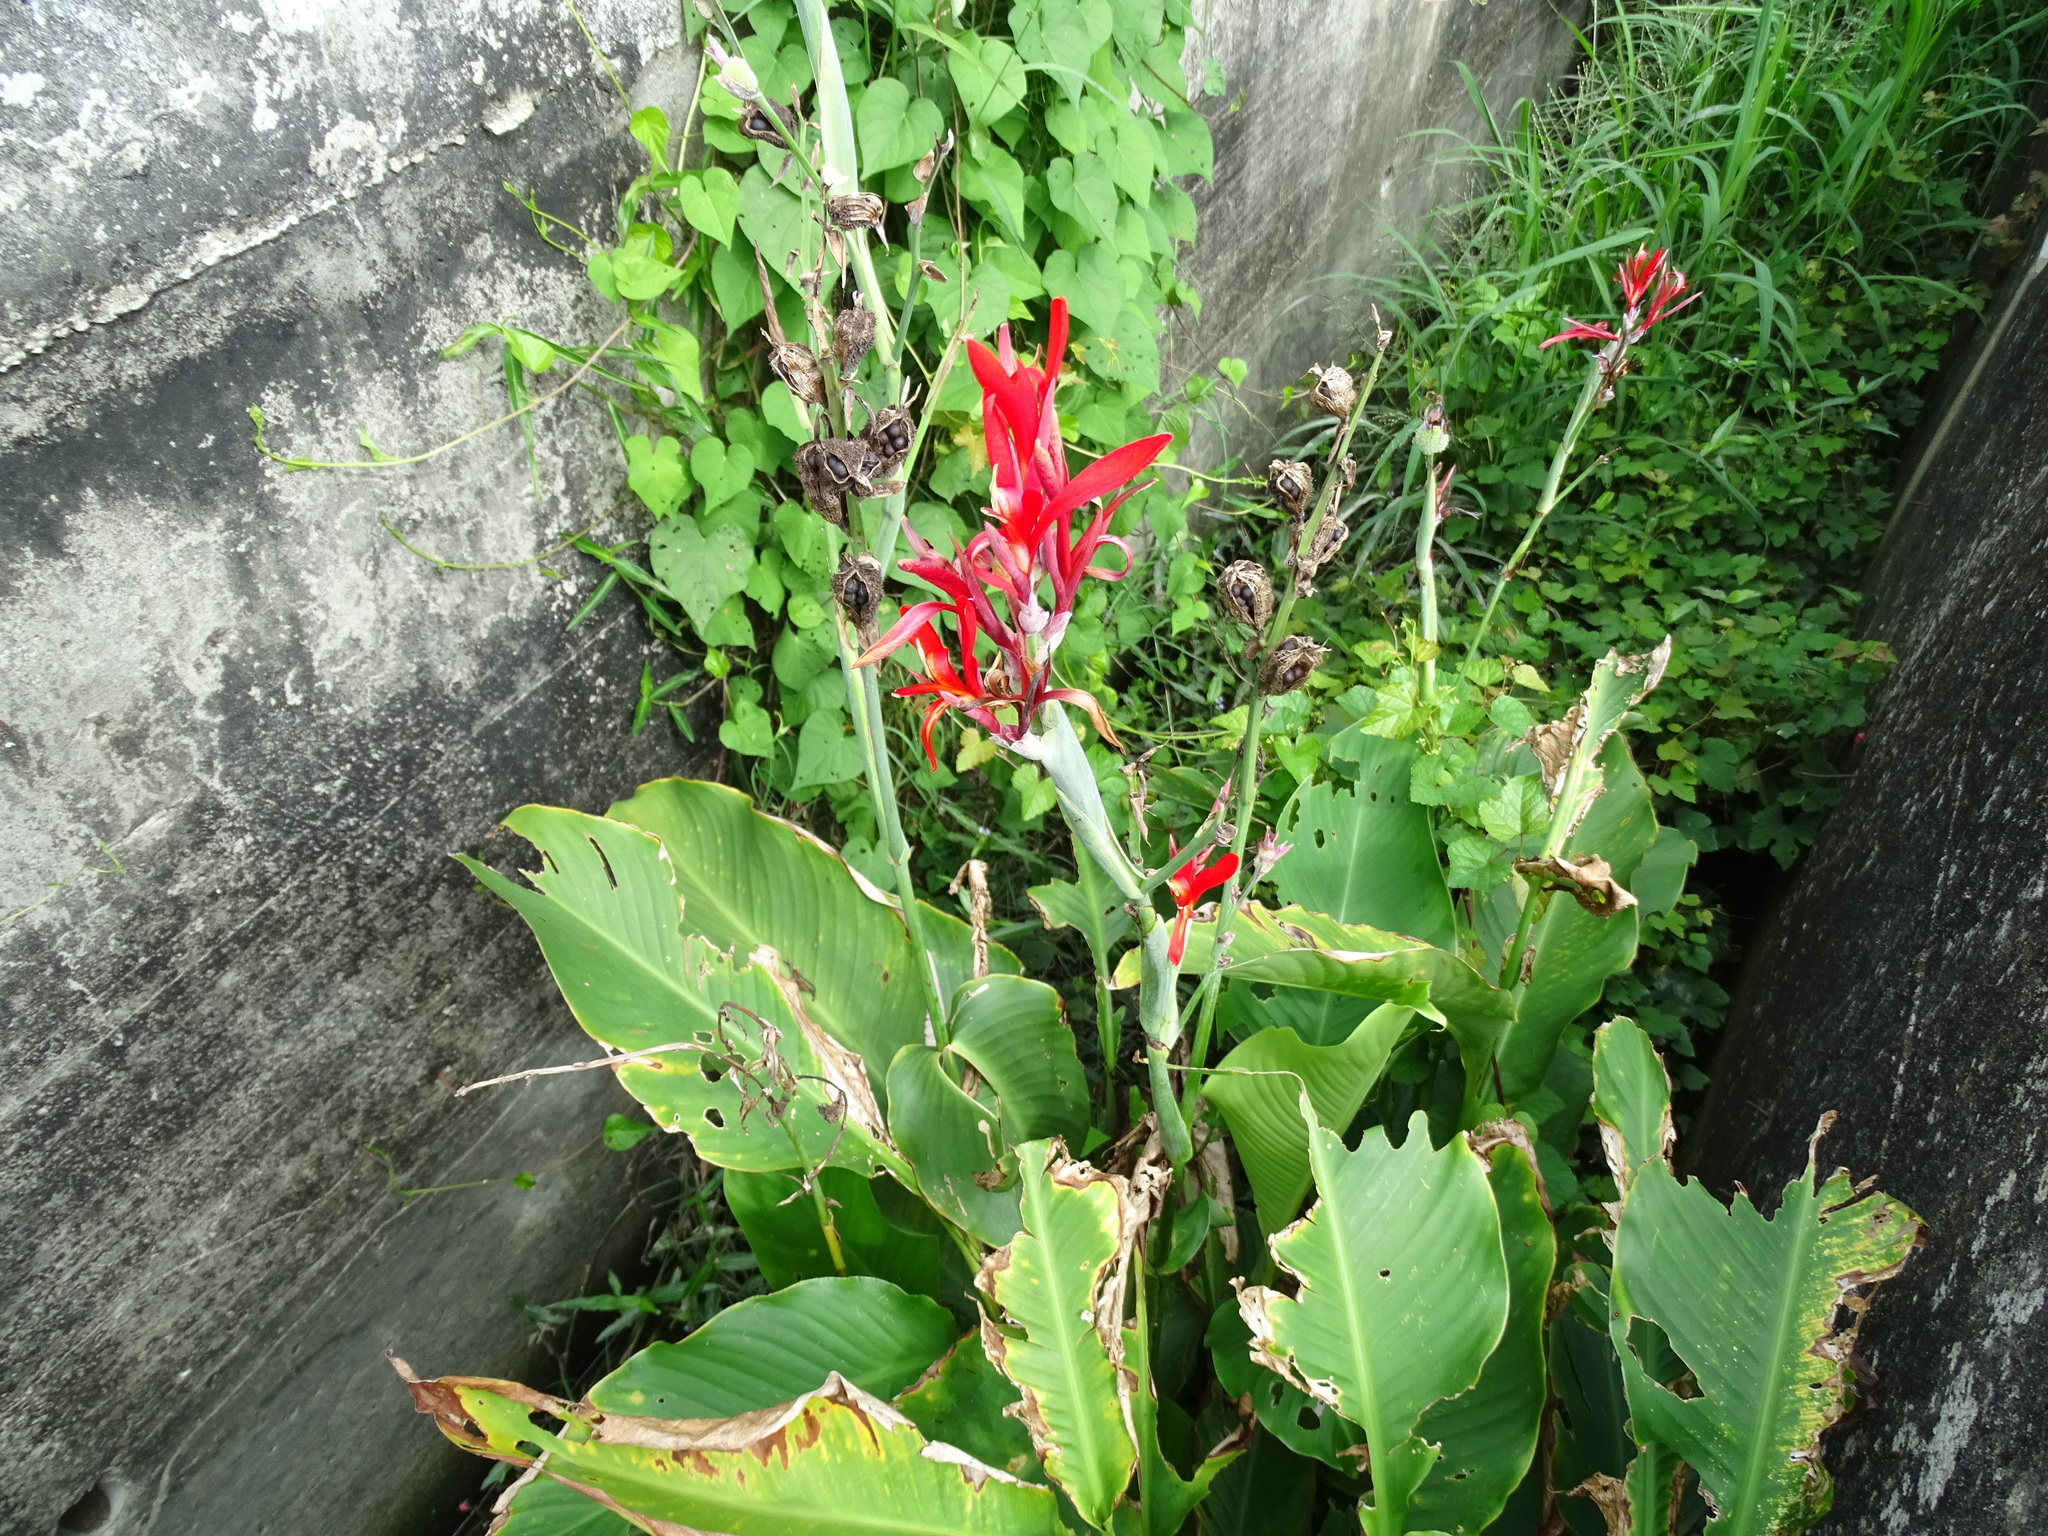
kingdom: Plantae
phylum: Tracheophyta
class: Liliopsida
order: Zingiberales
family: Cannaceae
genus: Canna
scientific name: Canna indica
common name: Indian shot
